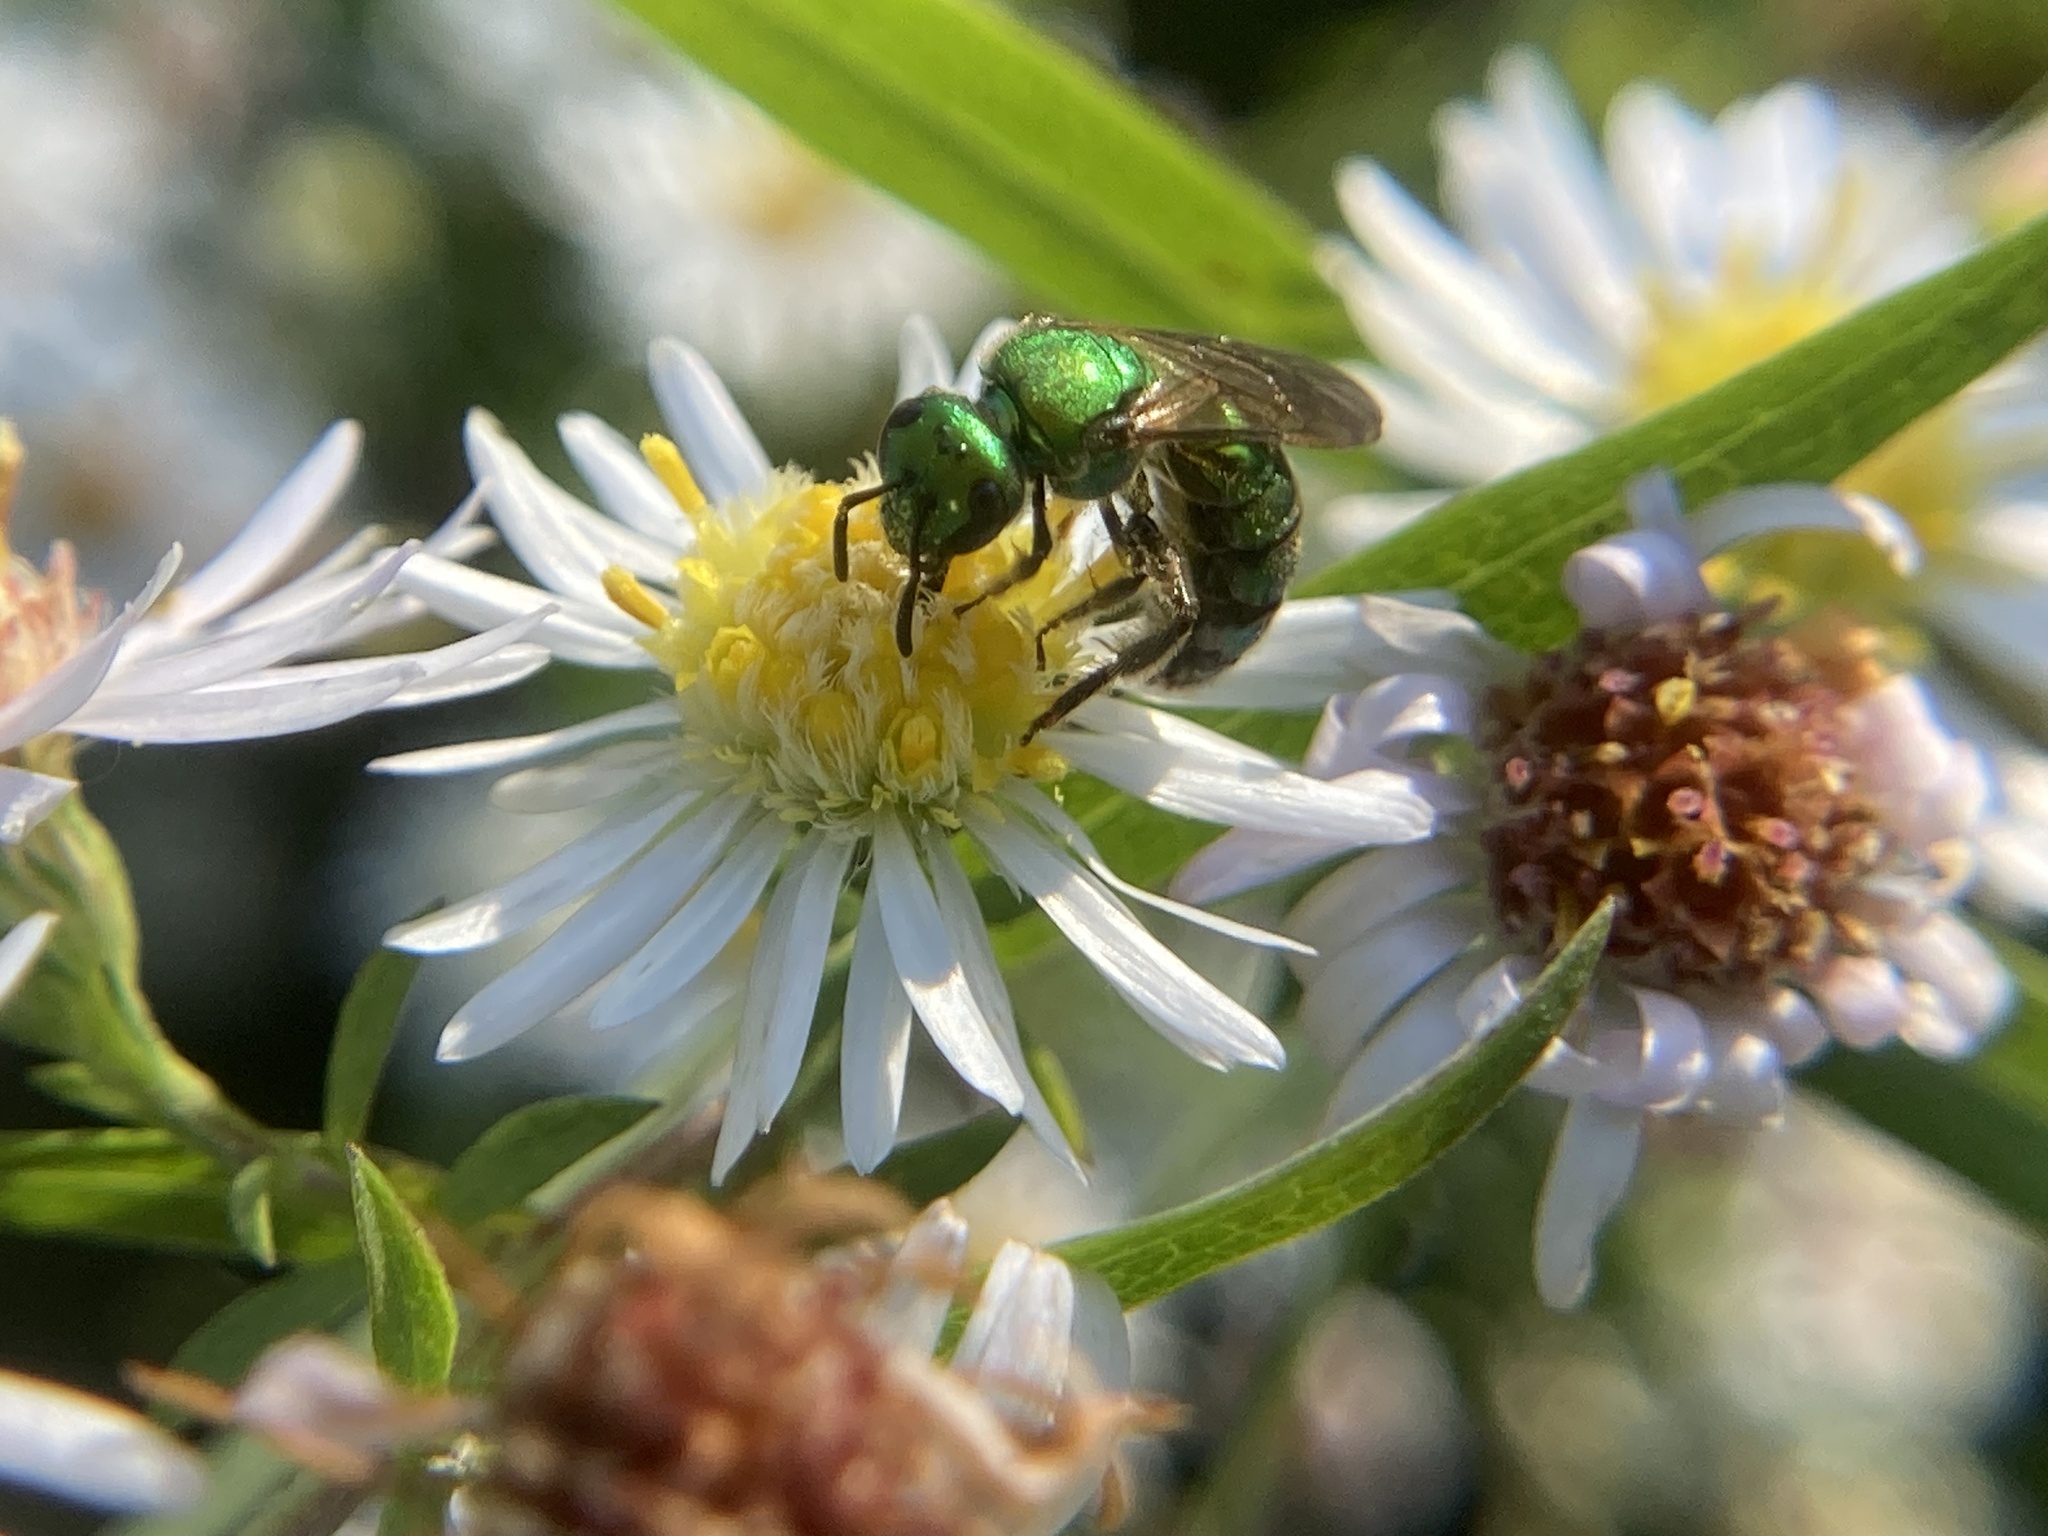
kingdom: Animalia
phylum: Arthropoda
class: Insecta
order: Hymenoptera
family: Halictidae
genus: Augochlora
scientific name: Augochlora pura
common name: Pure green sweat bee
